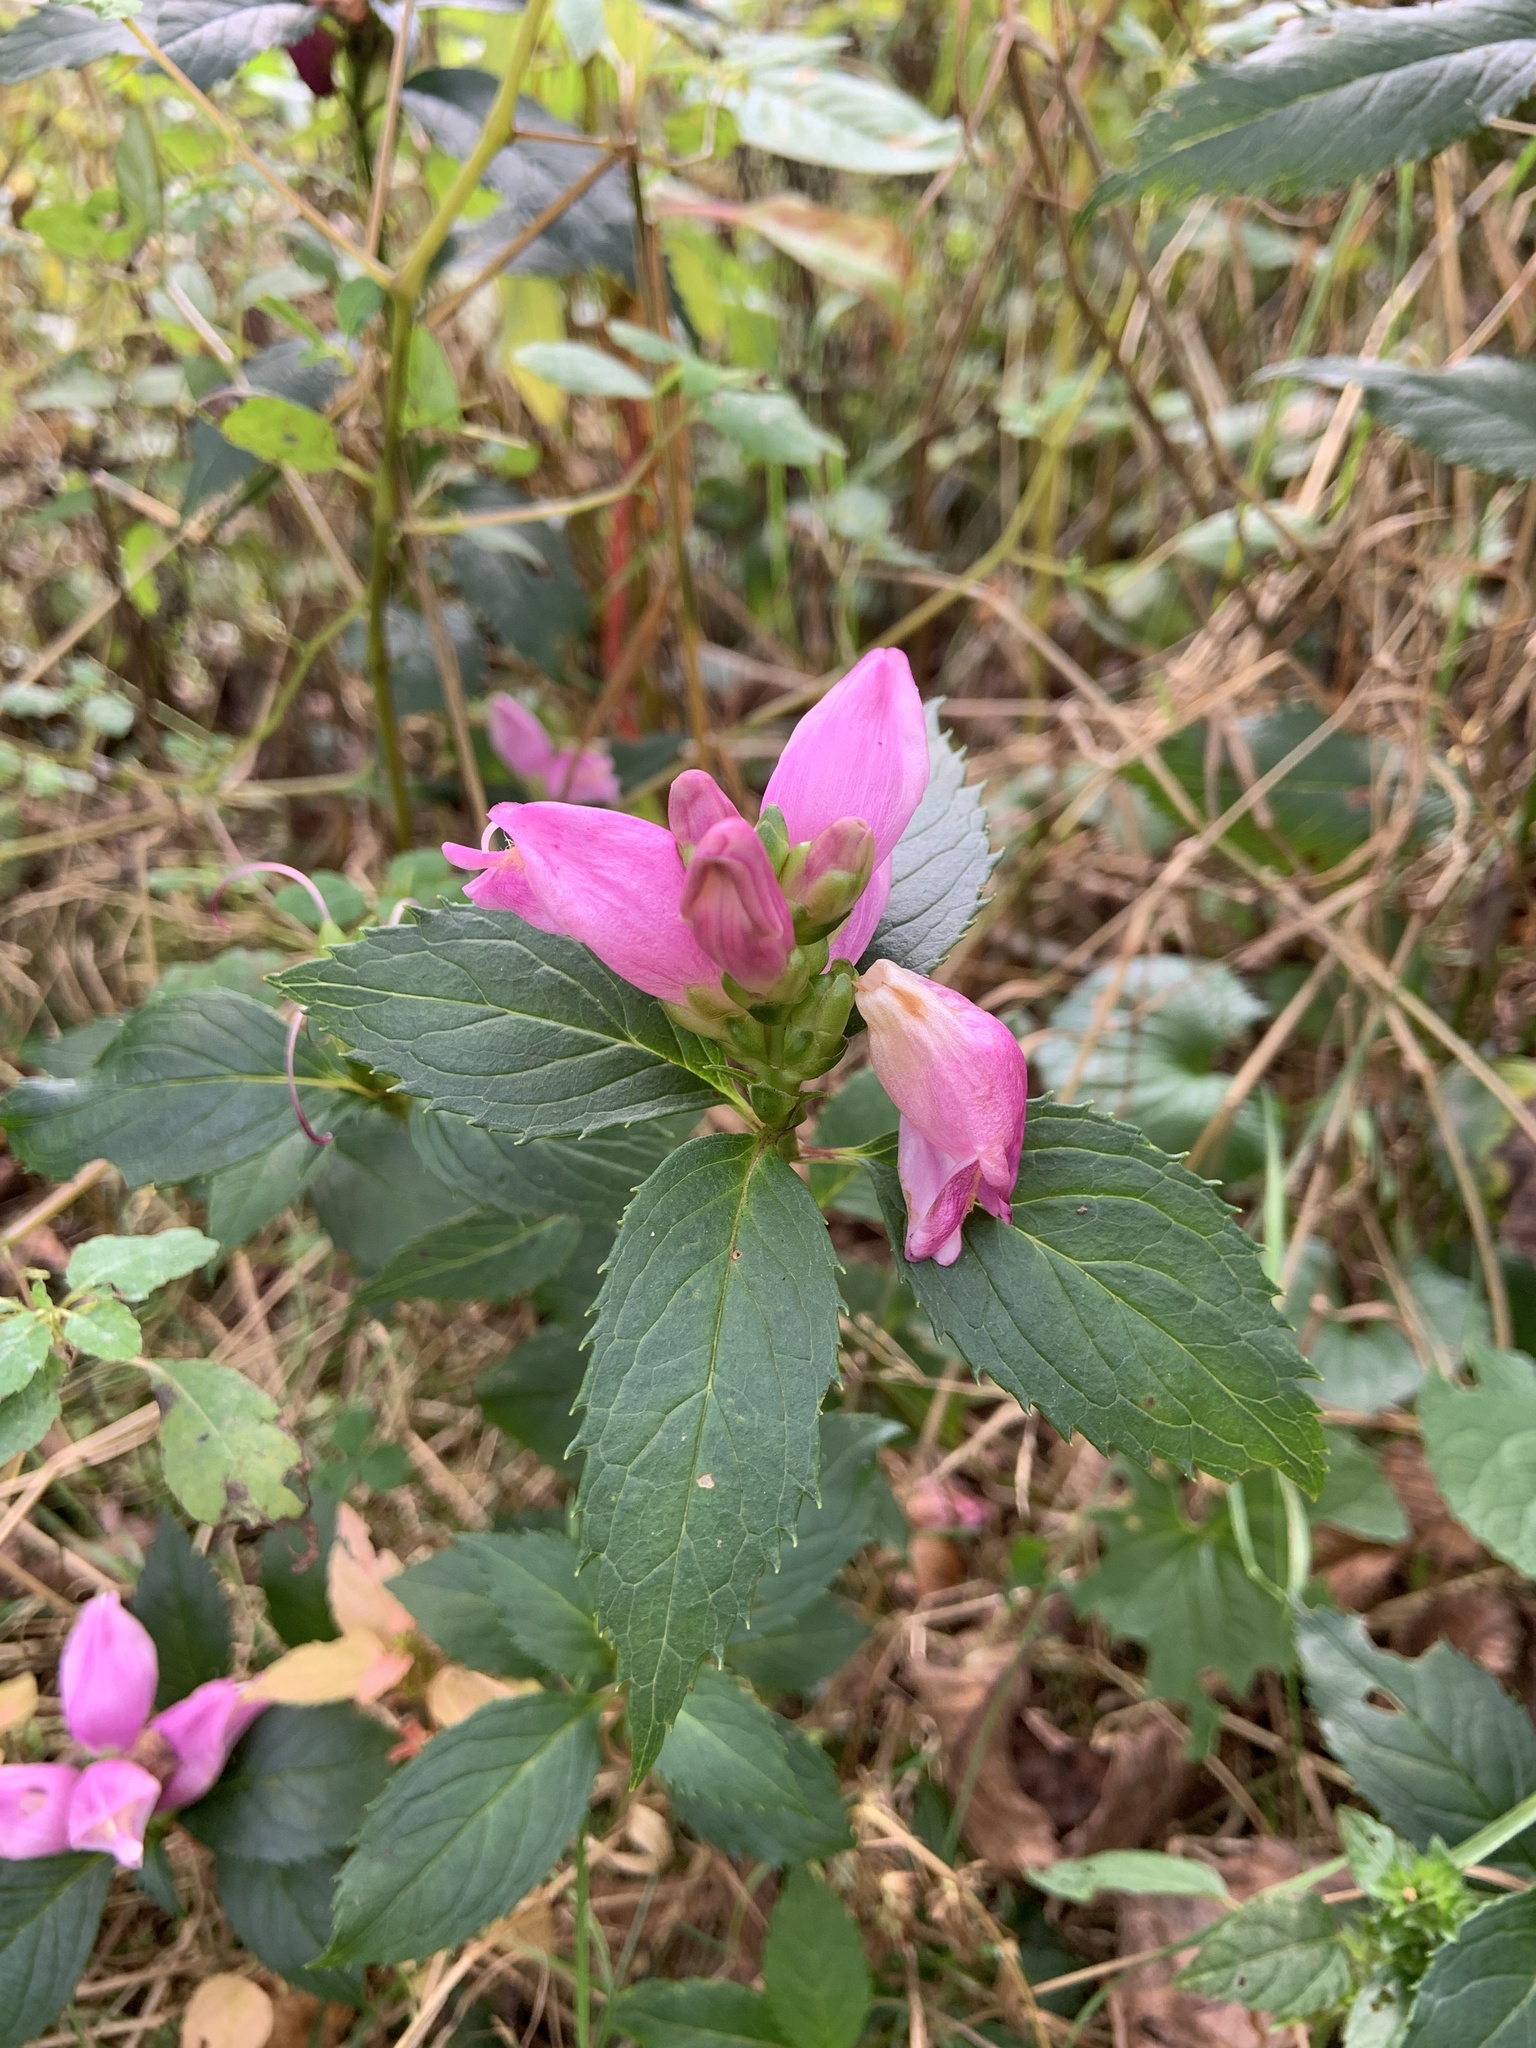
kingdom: Plantae
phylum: Tracheophyta
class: Magnoliopsida
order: Lamiales
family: Plantaginaceae
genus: Chelone
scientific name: Chelone lyonii
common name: Pink turtlehead
